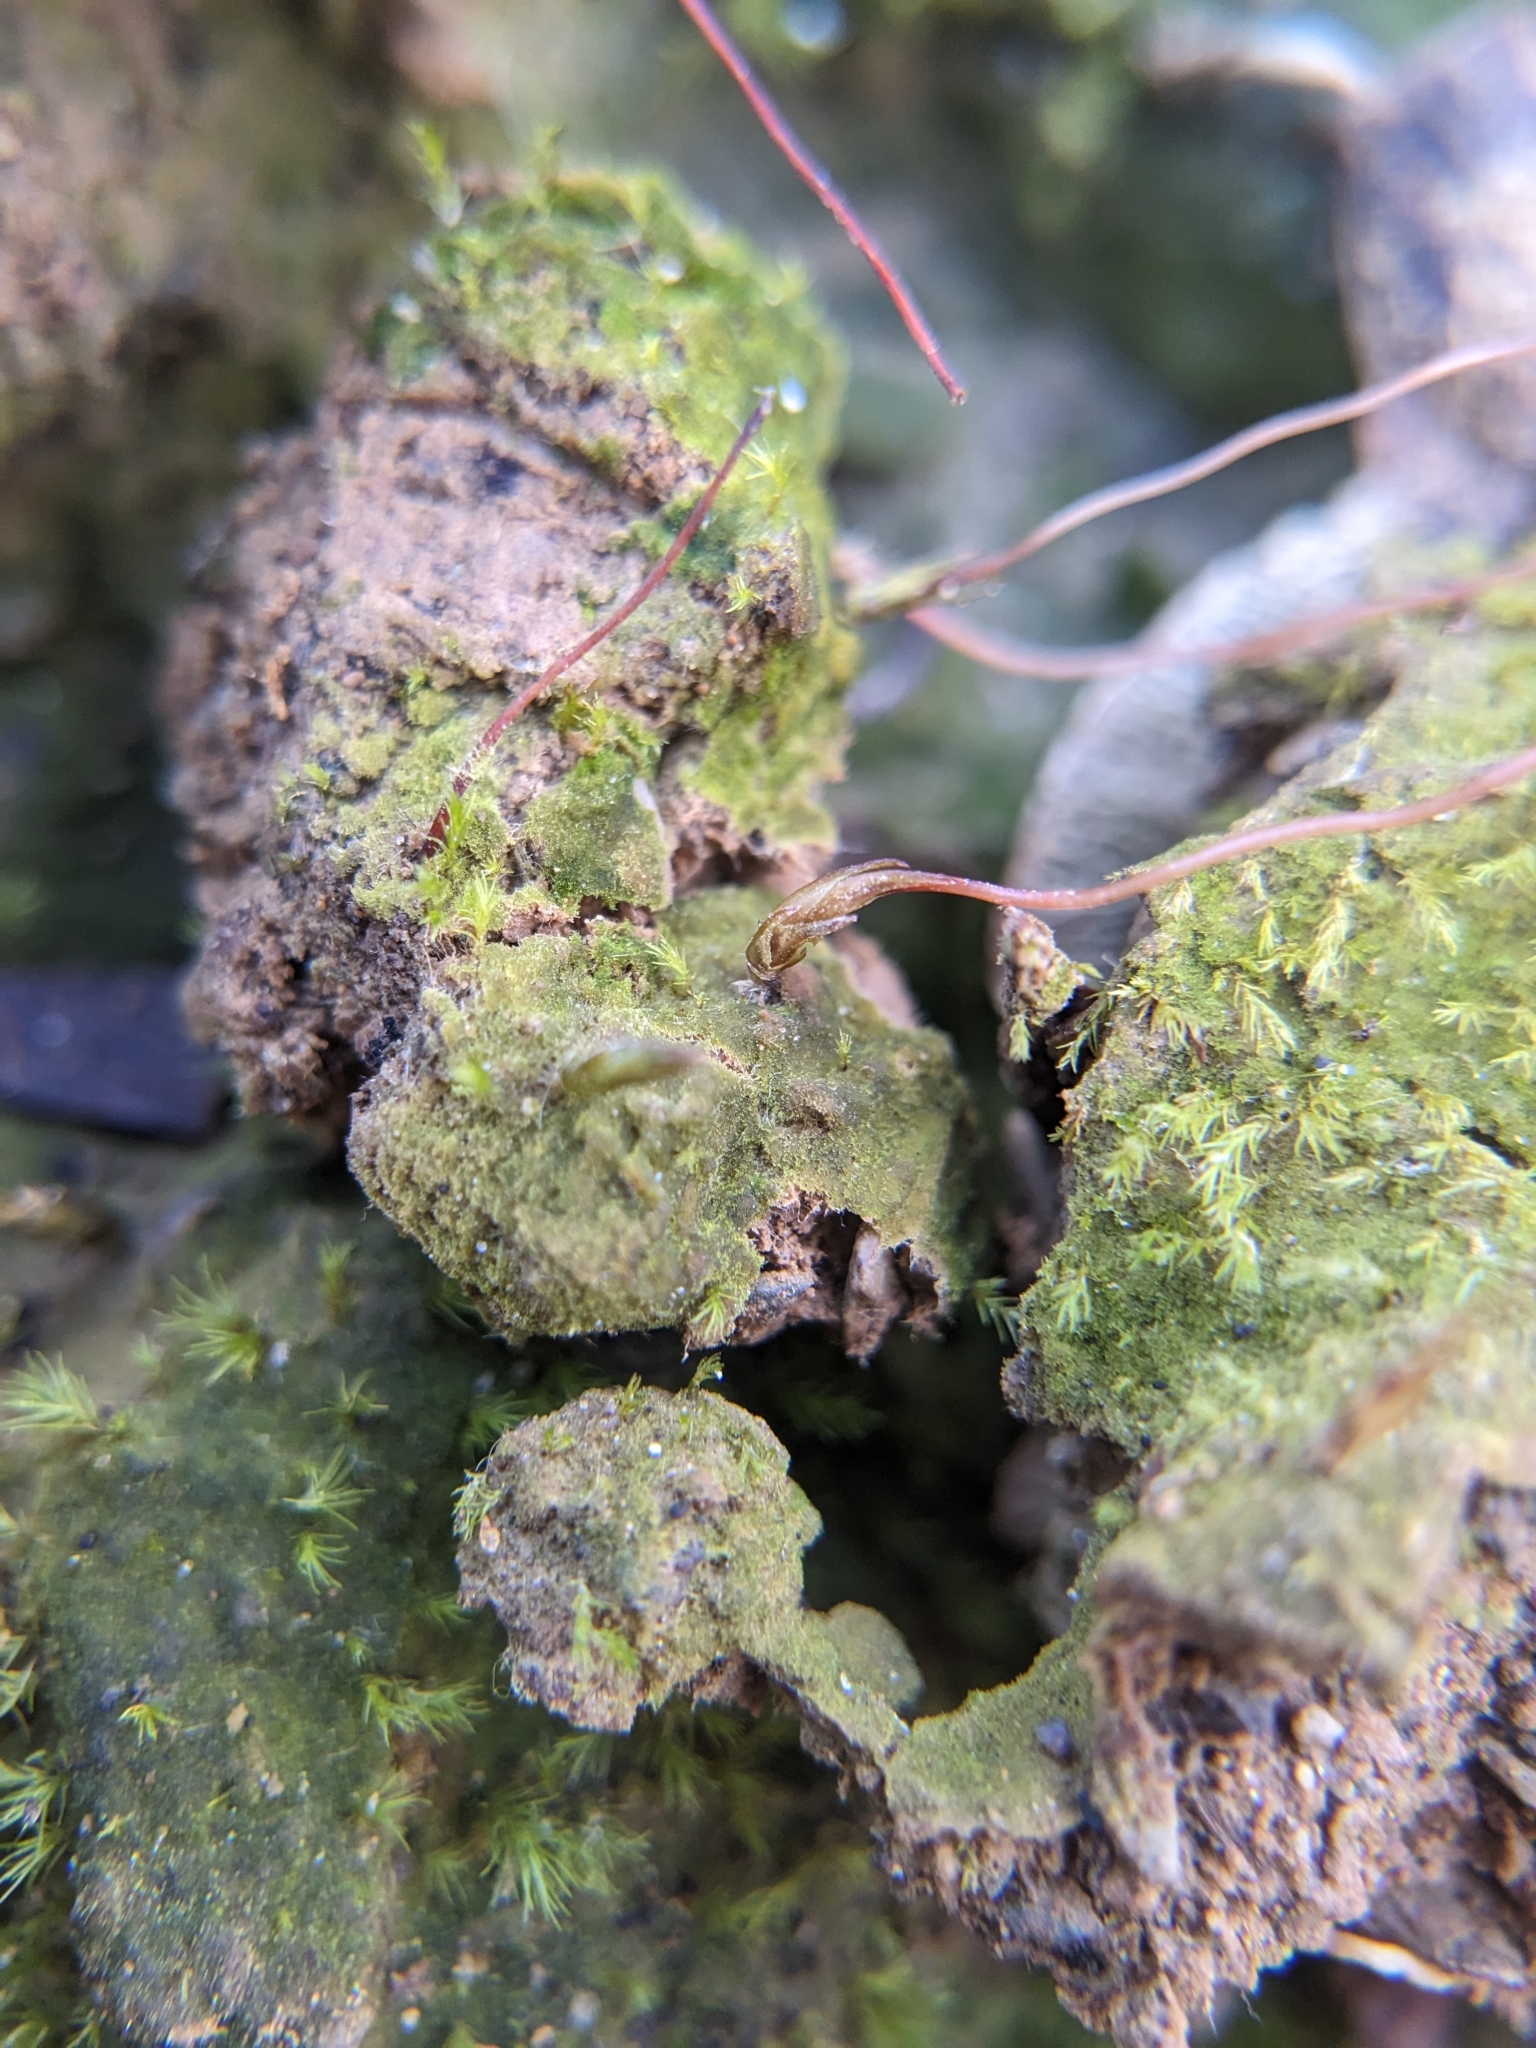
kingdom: Plantae
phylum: Bryophyta
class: Polytrichopsida
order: Polytrichales
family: Polytrichaceae
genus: Pogonatum
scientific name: Pogonatum pensilvanicum
